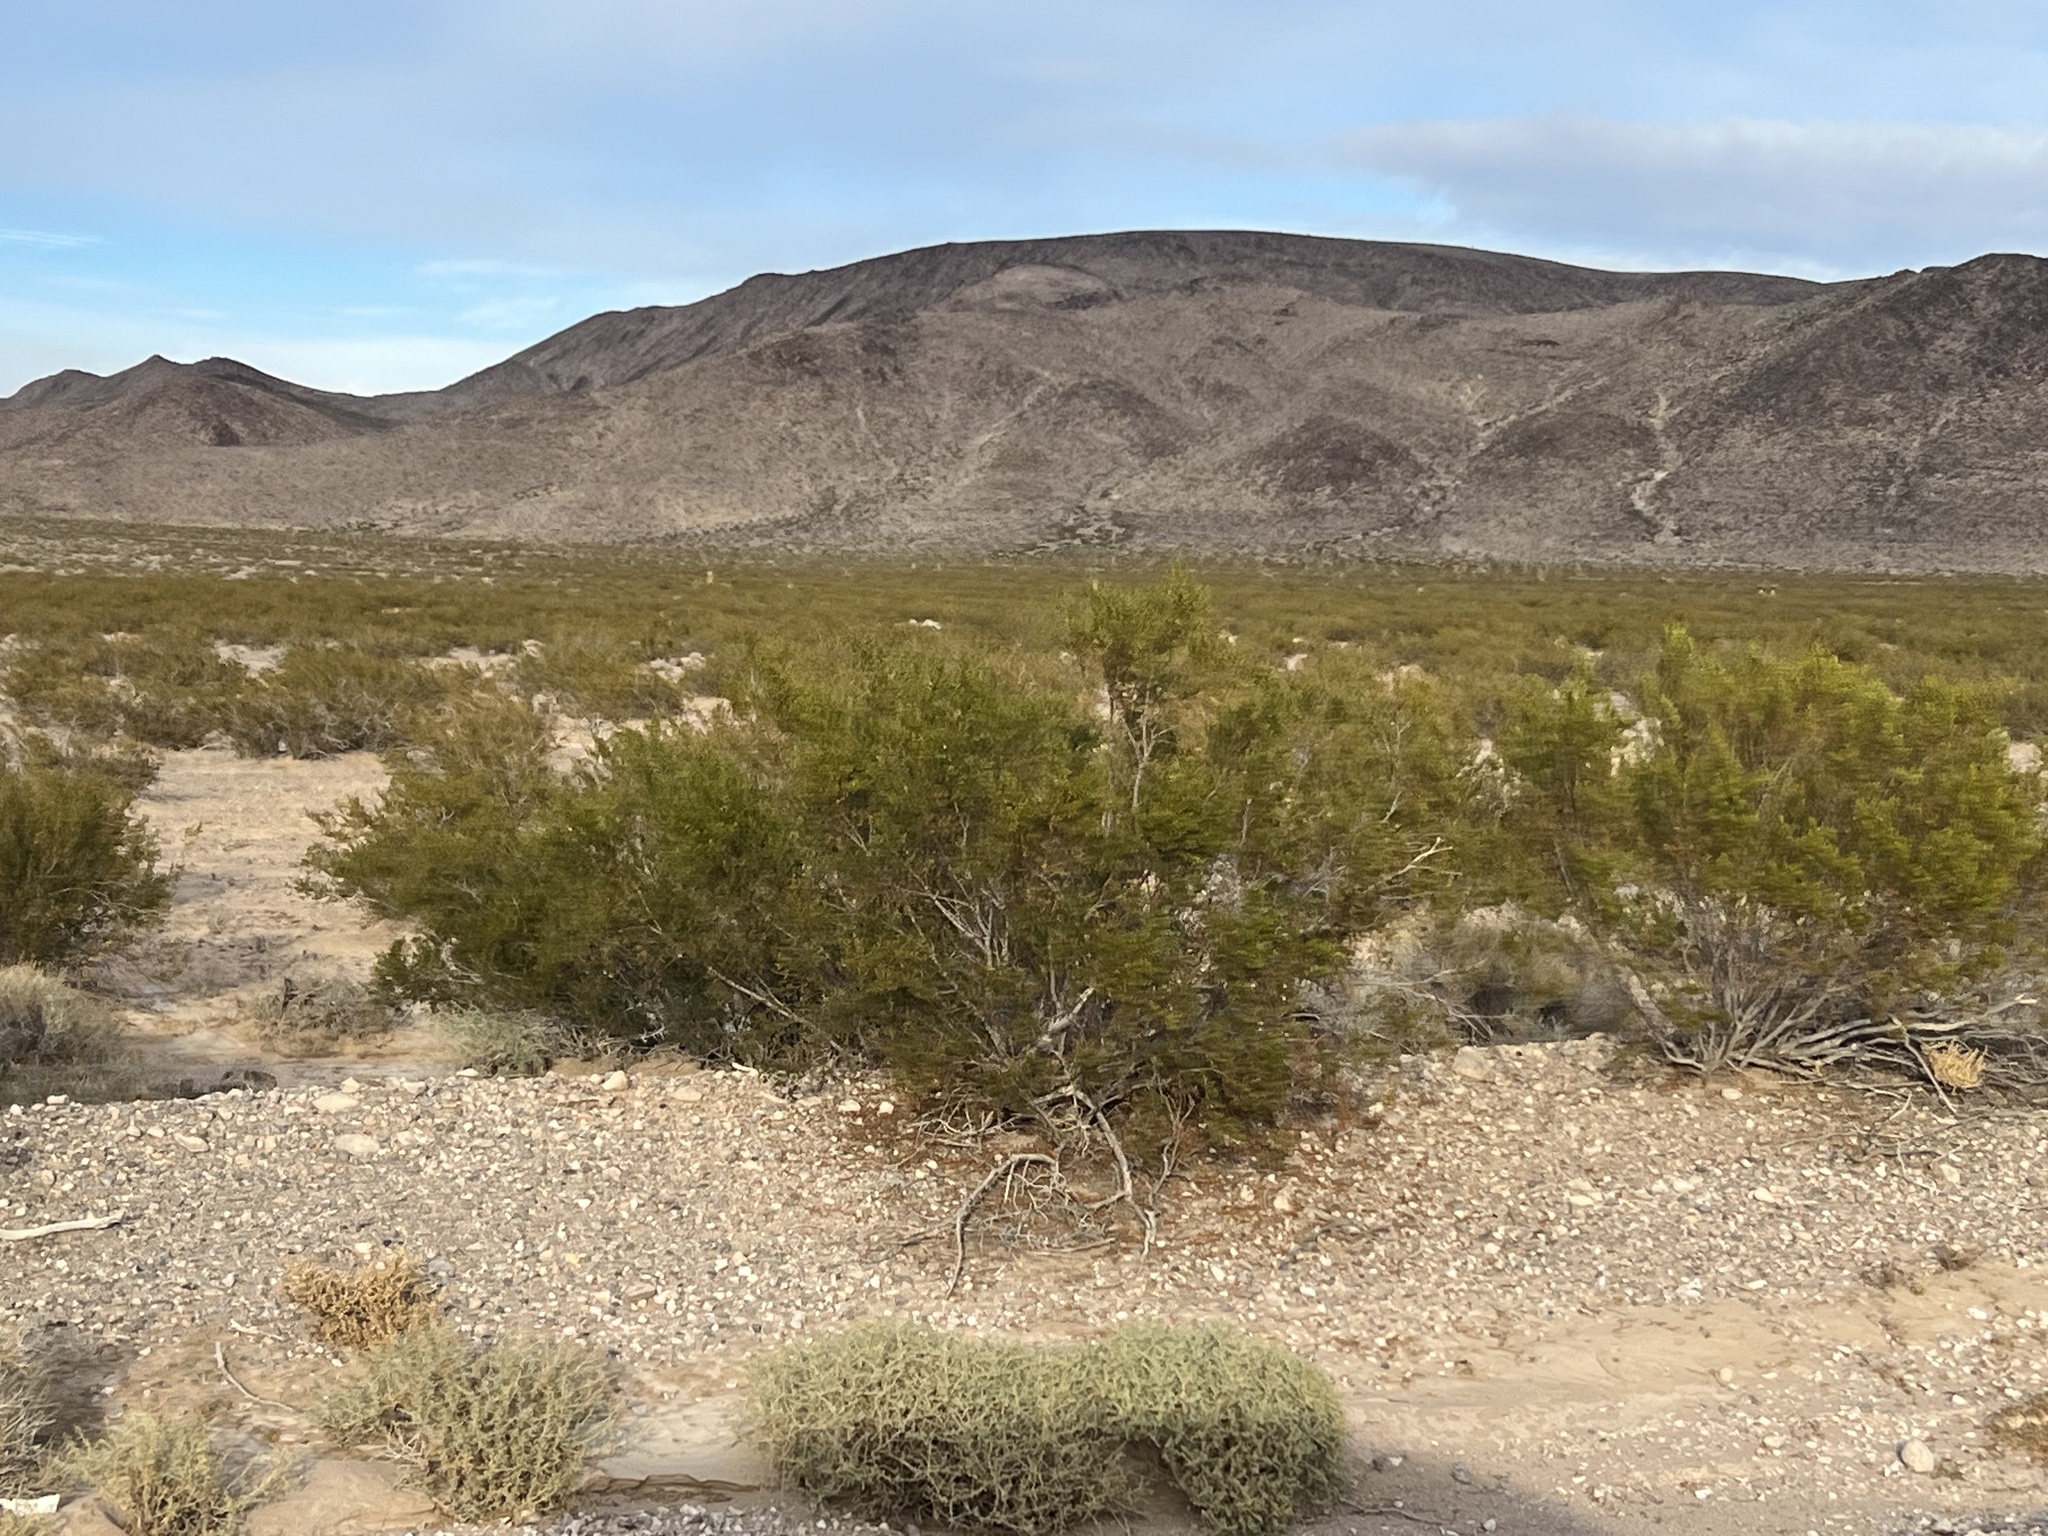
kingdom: Plantae
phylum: Tracheophyta
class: Magnoliopsida
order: Zygophyllales
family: Zygophyllaceae
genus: Larrea
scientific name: Larrea tridentata
